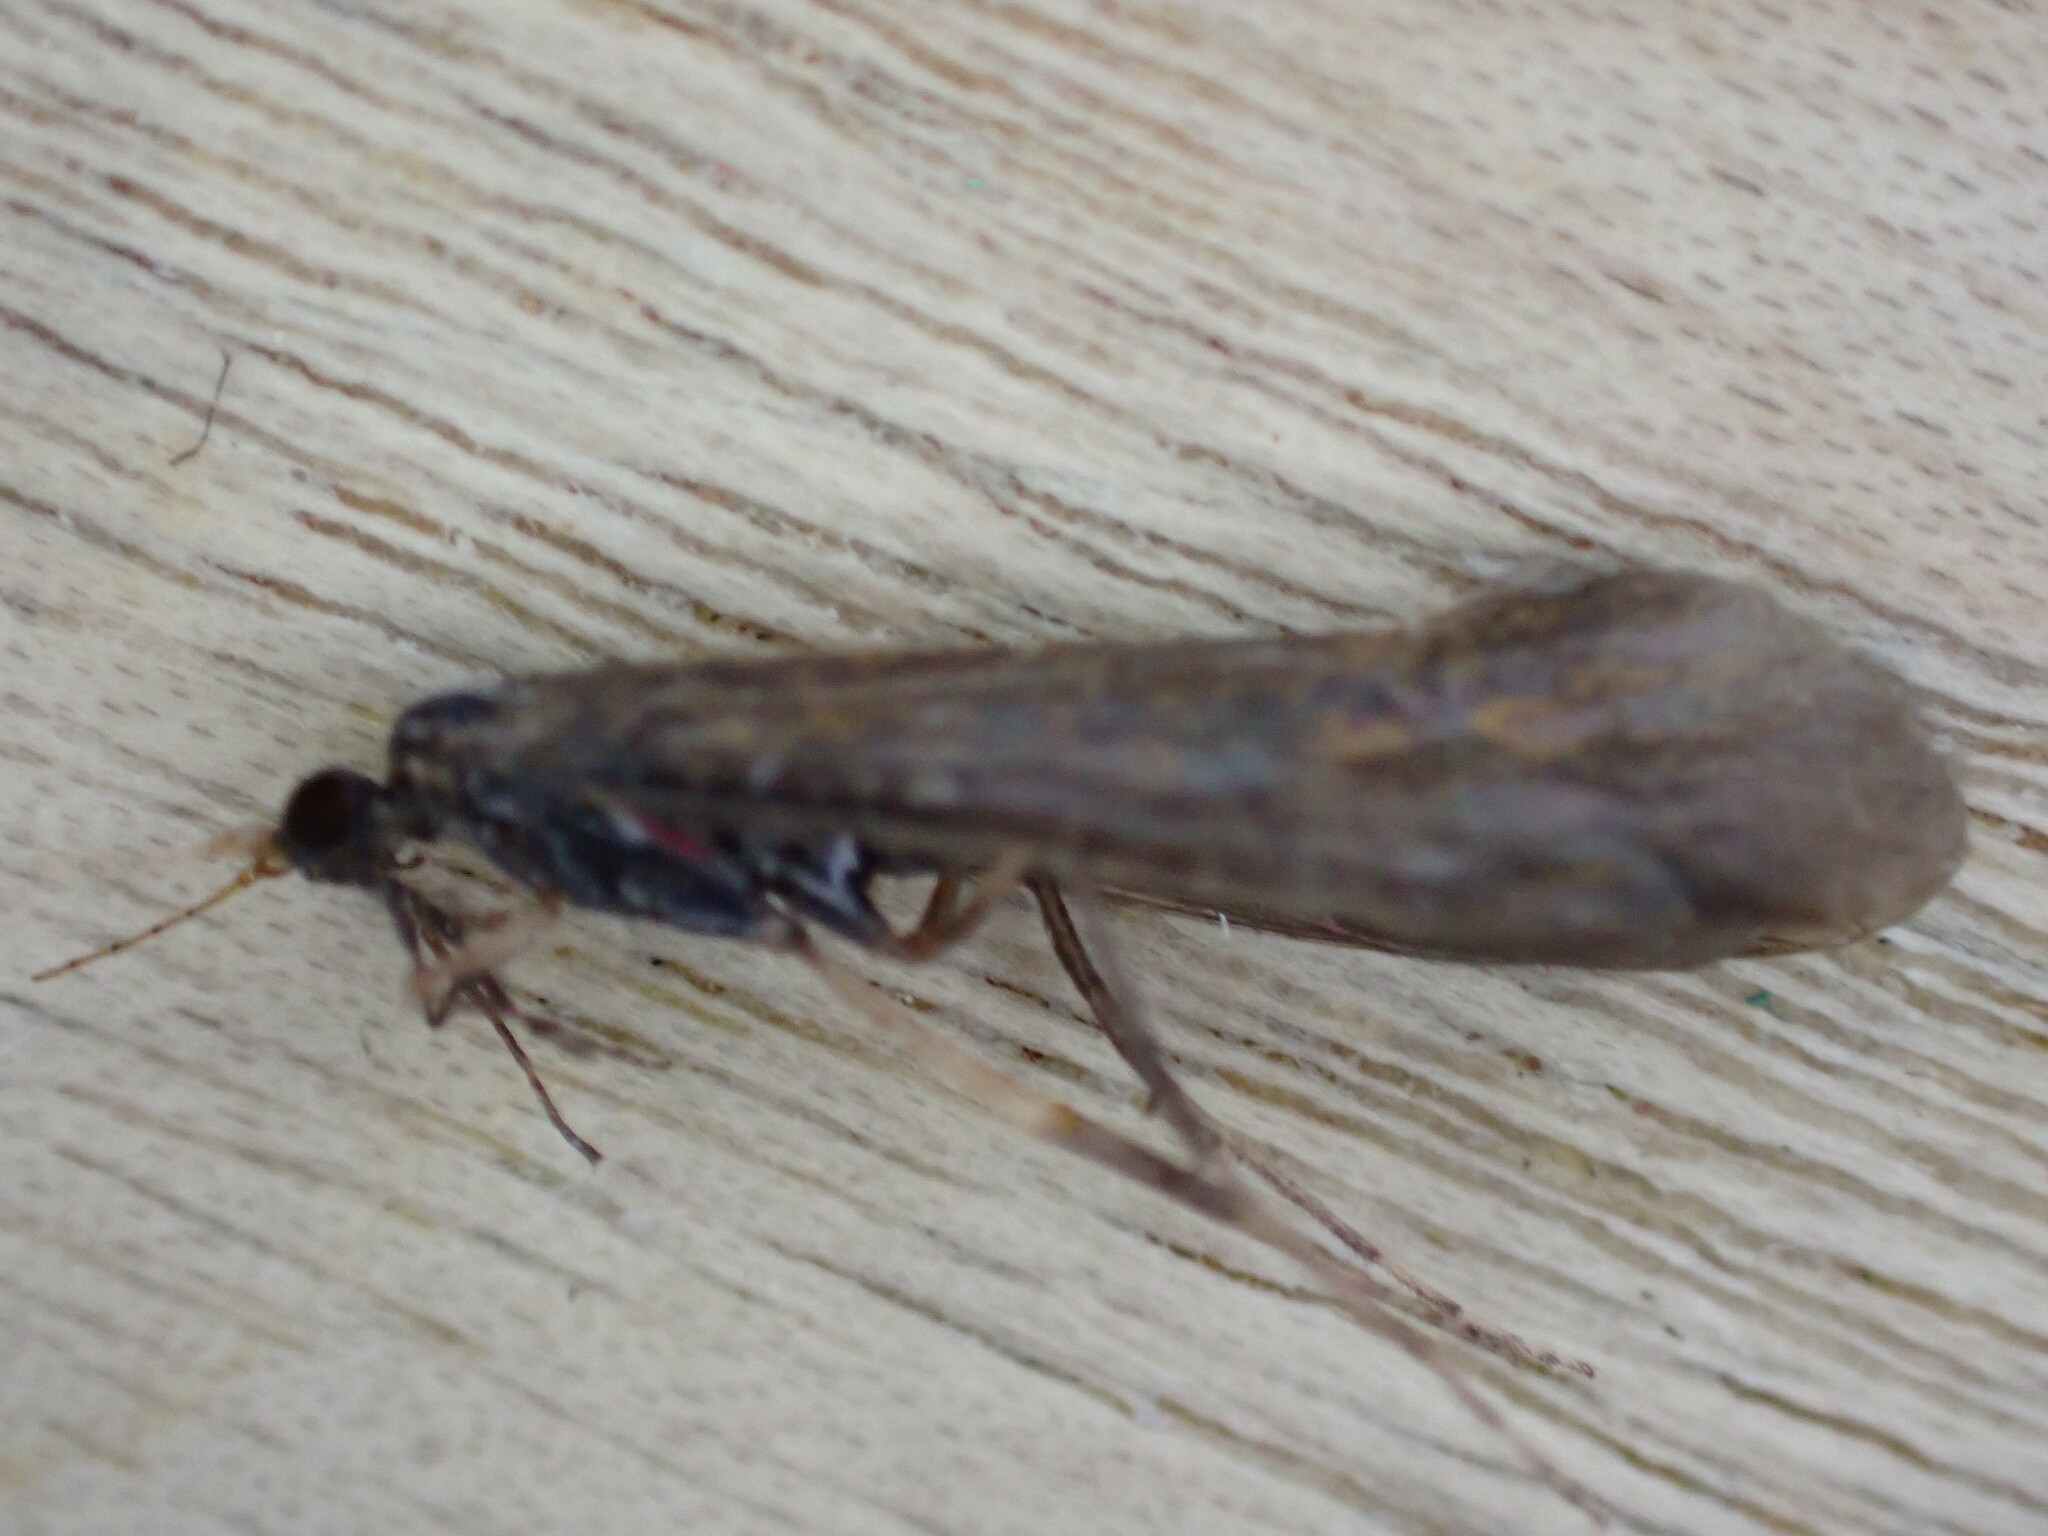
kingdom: Animalia
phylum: Arthropoda
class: Insecta
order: Trichoptera
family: Leptoceridae
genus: Mystacides
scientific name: Mystacides longicornis
